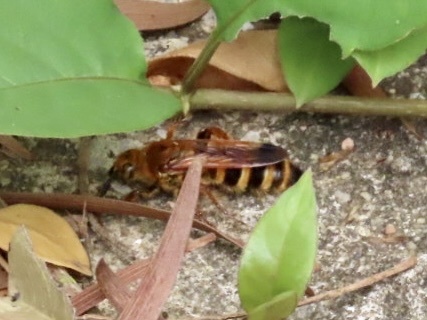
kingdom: Animalia
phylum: Arthropoda
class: Insecta
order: Hymenoptera
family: Scoliidae
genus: Campsomeris
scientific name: Campsomeris phalerata
